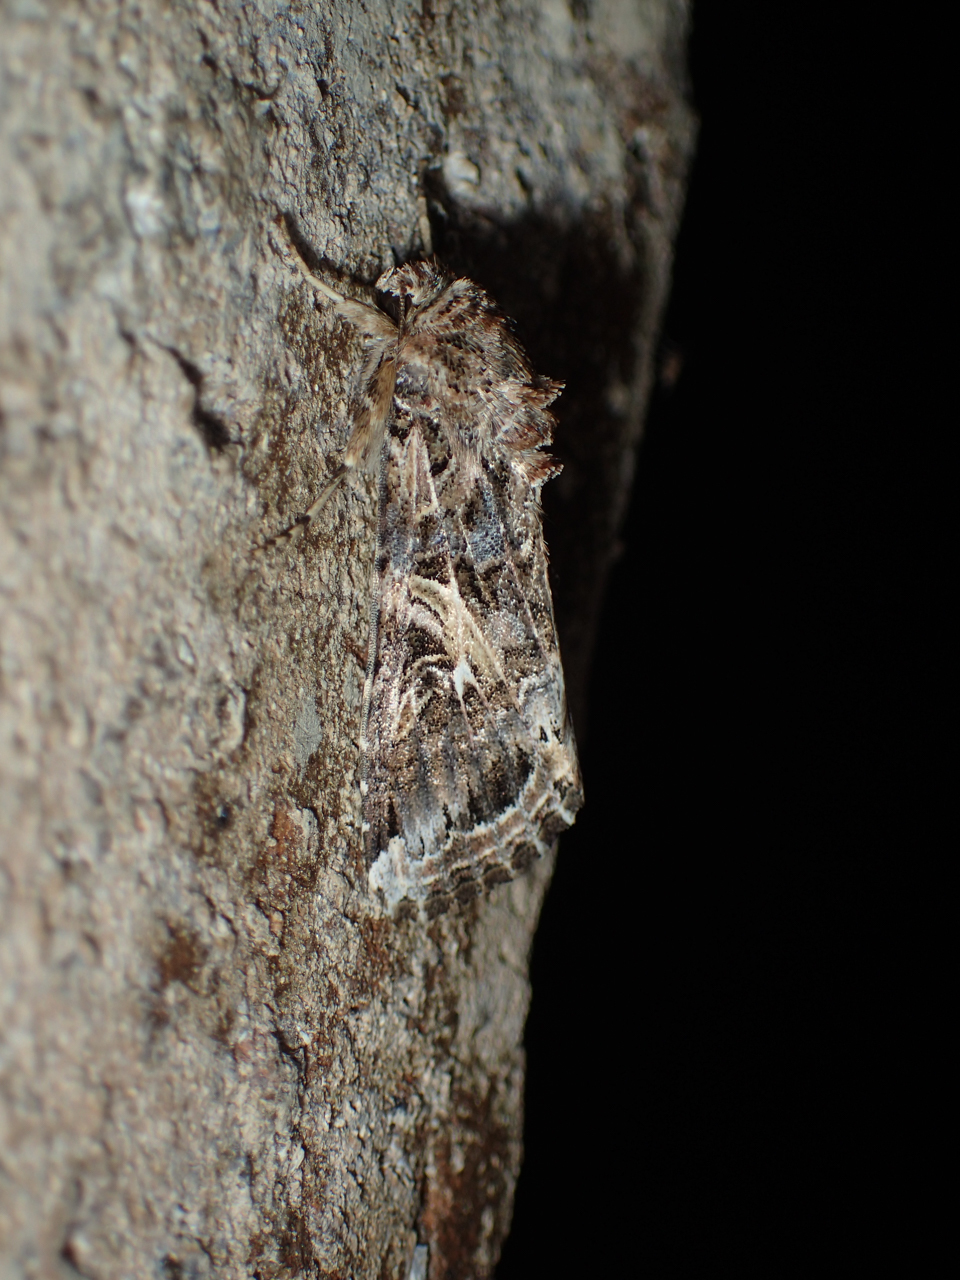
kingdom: Animalia
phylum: Arthropoda
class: Insecta
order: Lepidoptera
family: Noctuidae
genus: Spodoptera
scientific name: Spodoptera ornithogalli
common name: Yellow-striped armyworm
